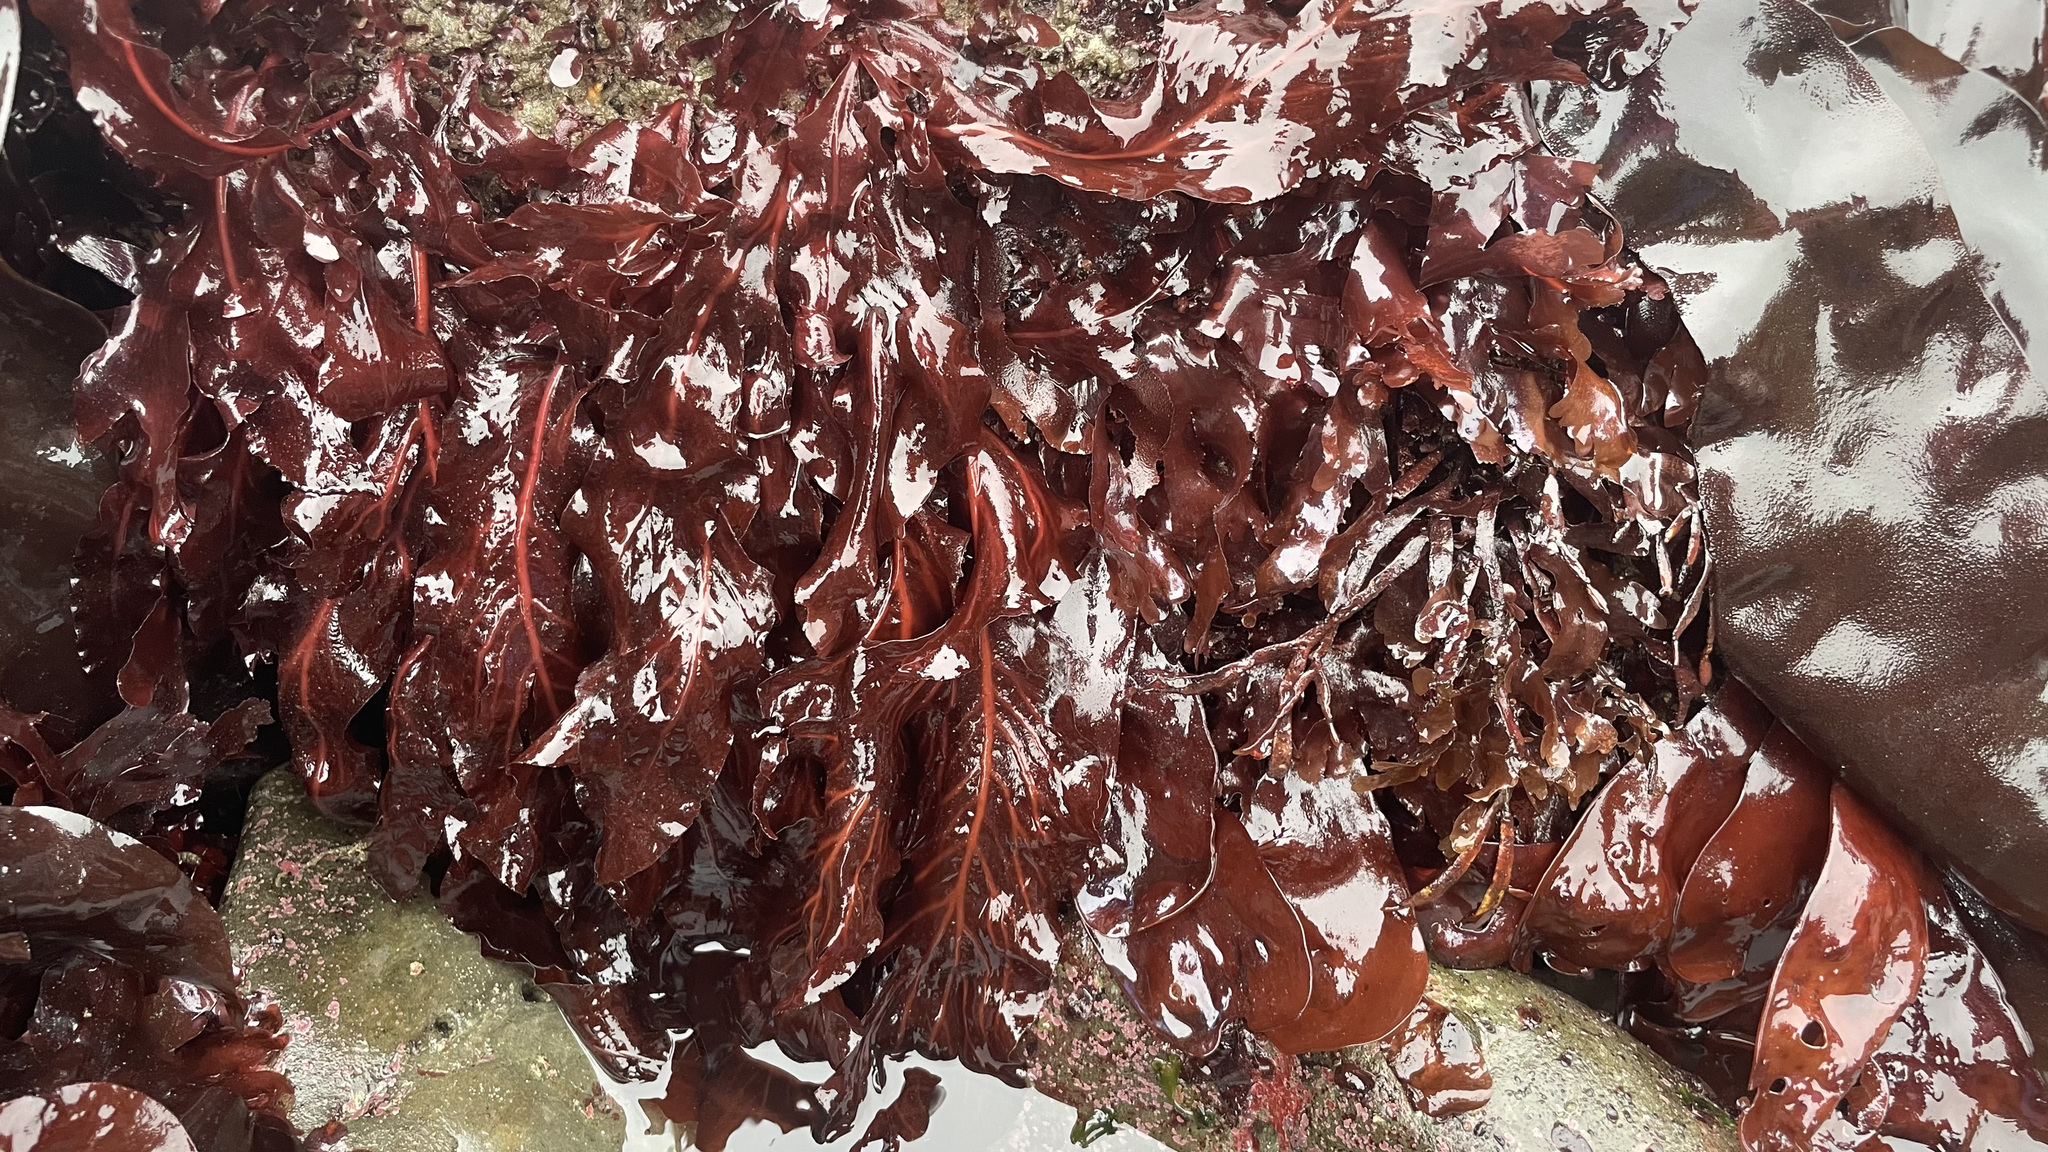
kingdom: Plantae
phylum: Rhodophyta
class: Florideophyceae
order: Gigartinales
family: Kallymeniaceae
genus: Erythrophyllum
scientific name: Erythrophyllum delesserioides
